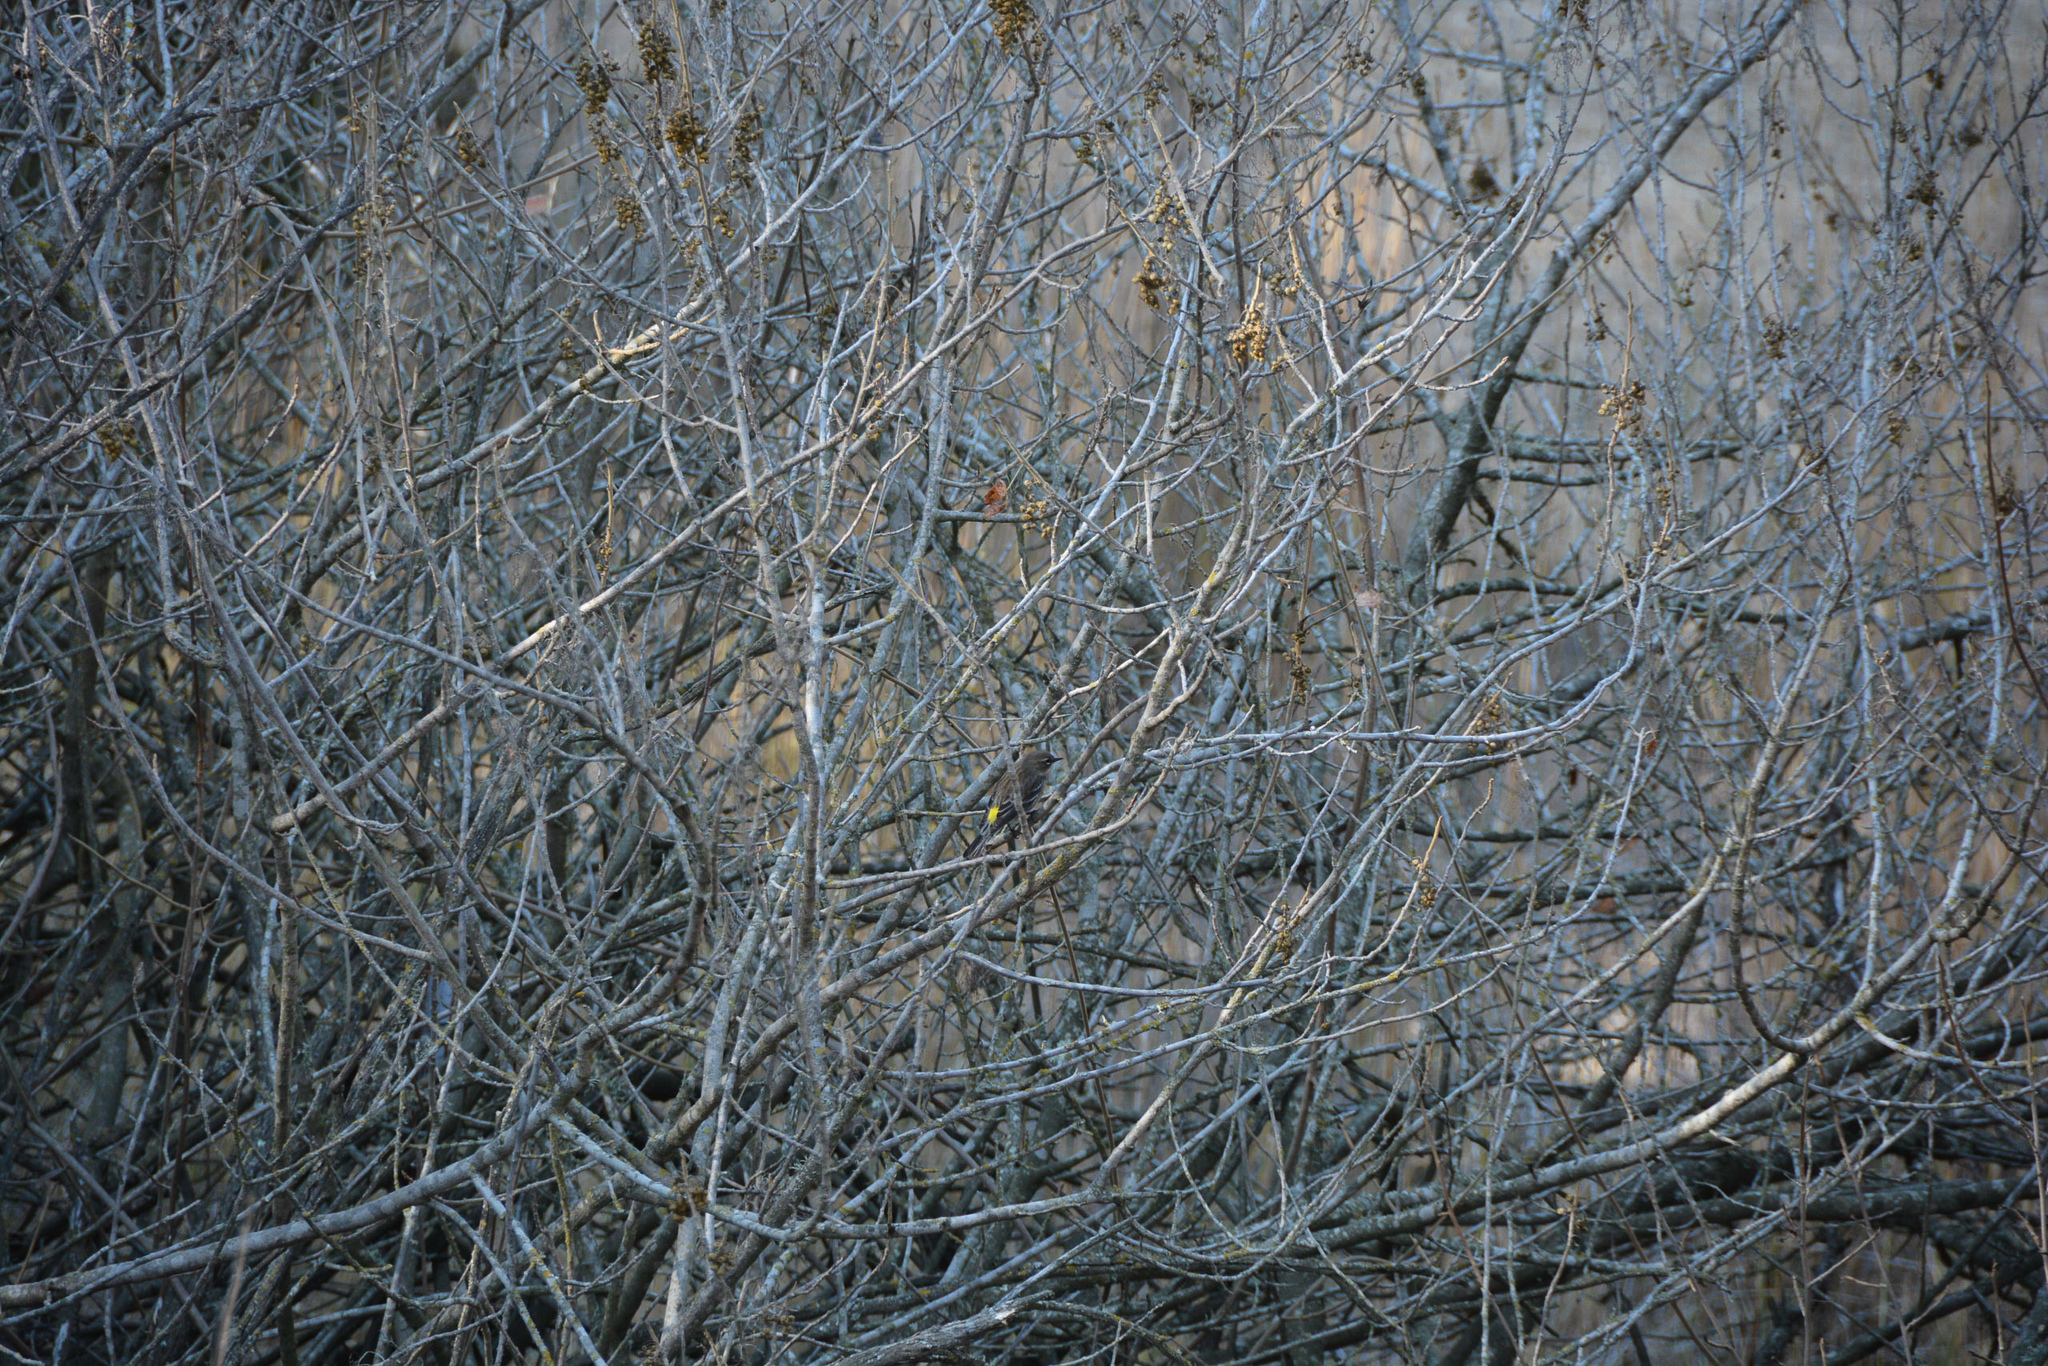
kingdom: Animalia
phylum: Chordata
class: Aves
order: Passeriformes
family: Parulidae
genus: Setophaga
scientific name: Setophaga coronata
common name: Myrtle warbler
